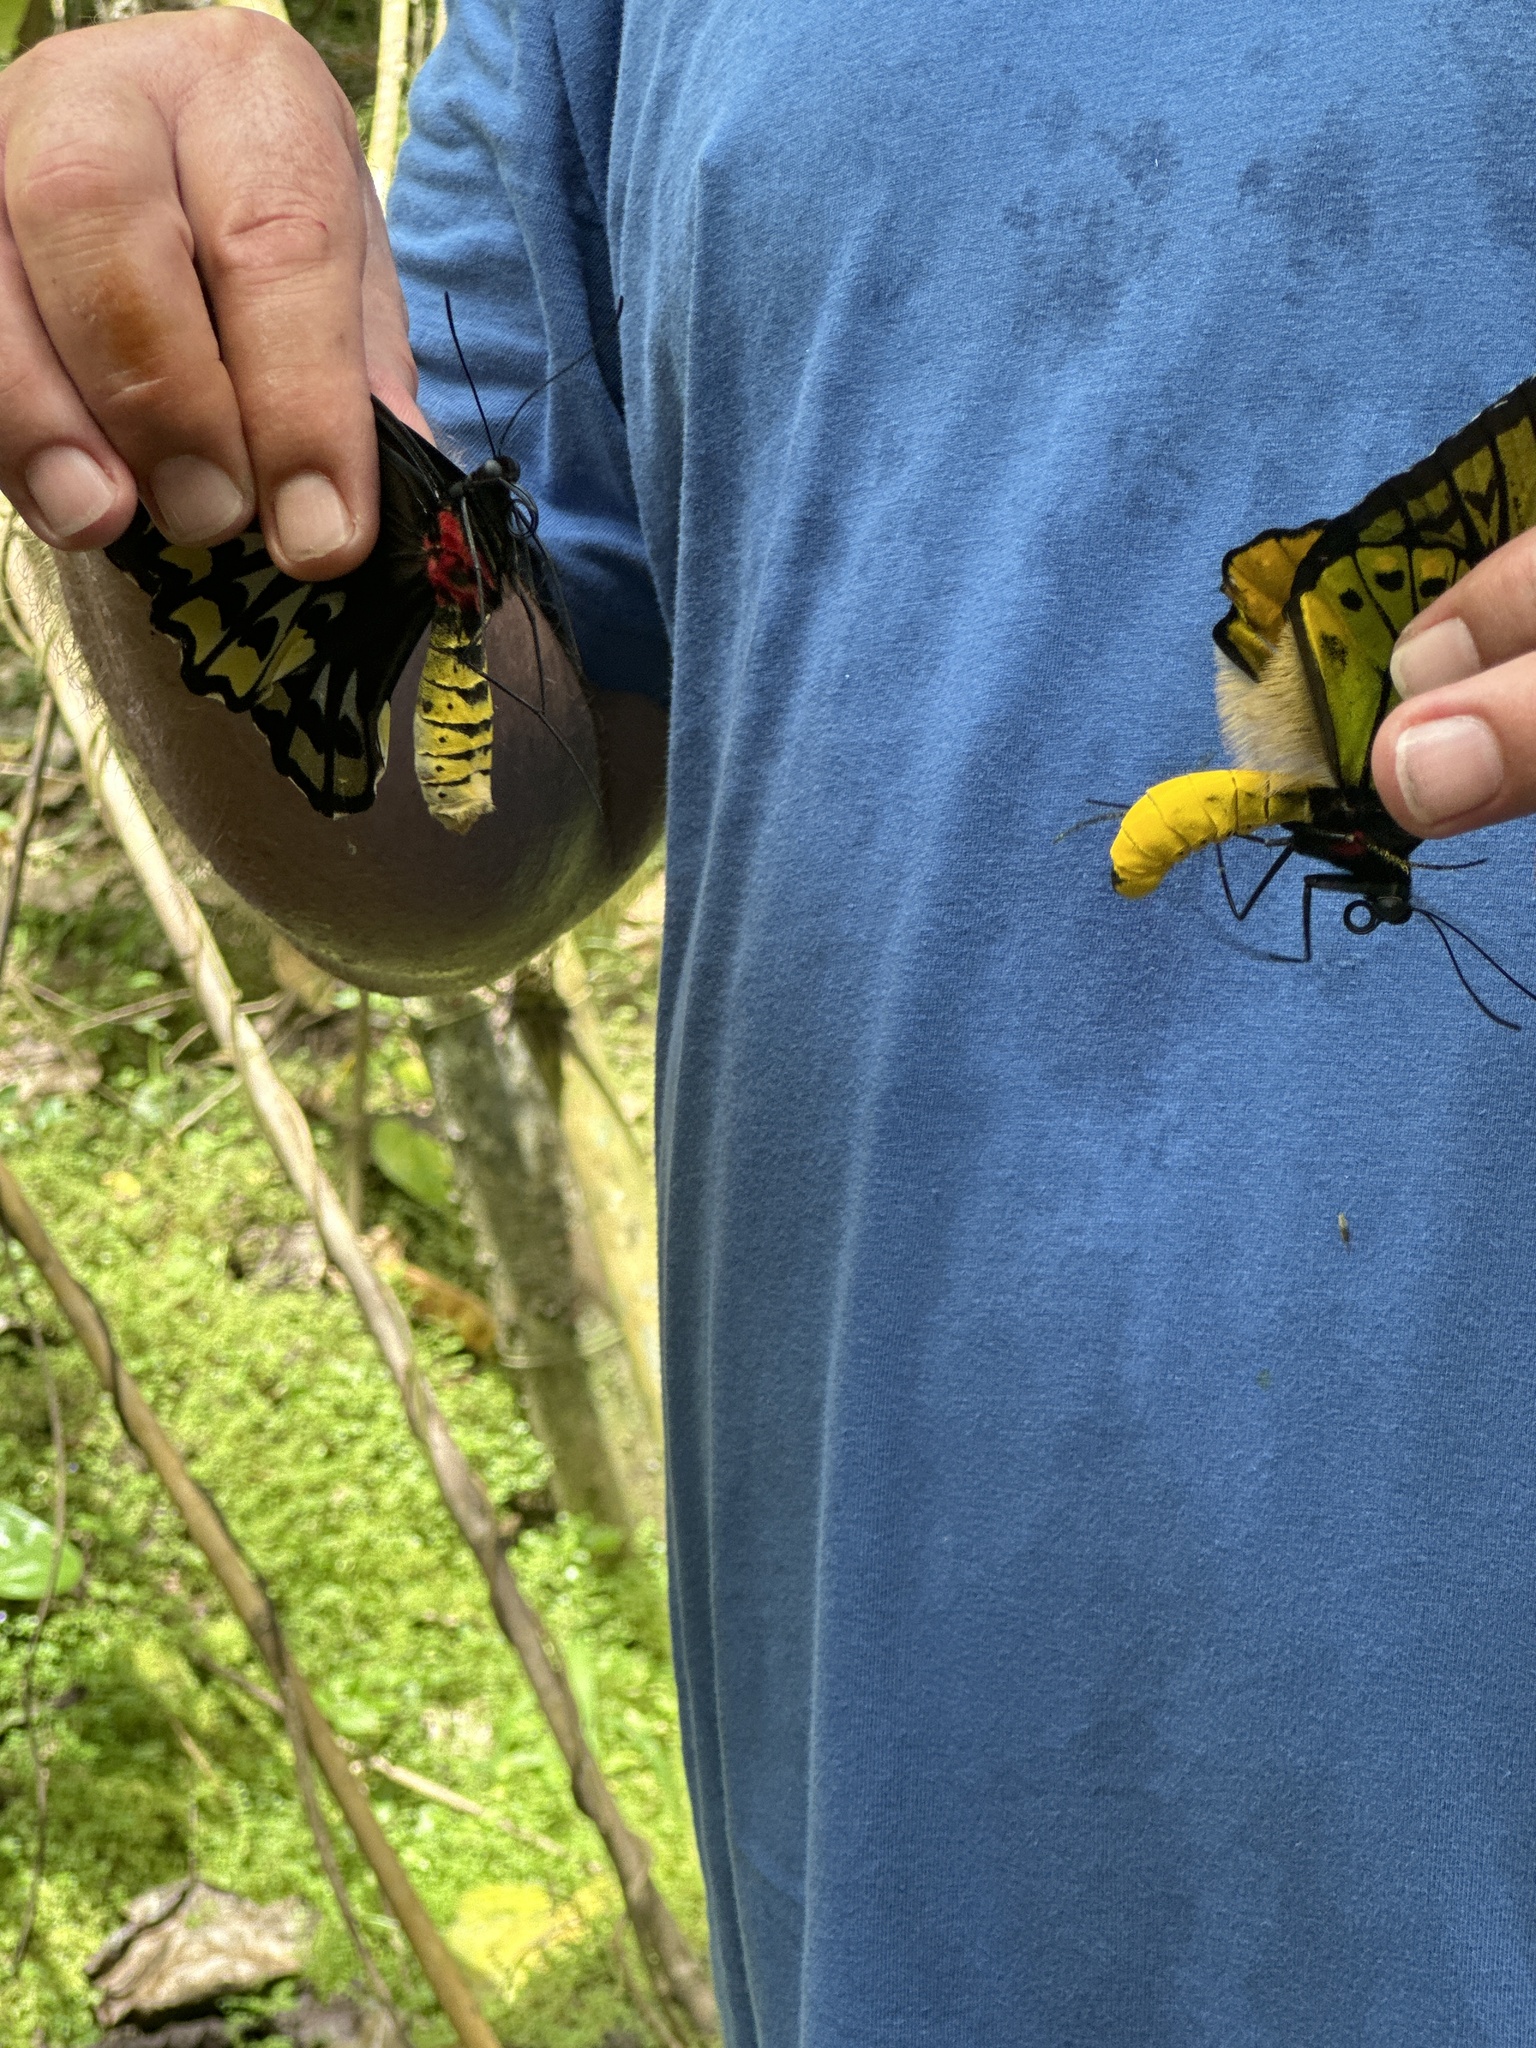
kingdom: Animalia
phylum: Arthropoda
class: Insecta
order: Lepidoptera
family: Papilionidae
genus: Ornithoptera
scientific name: Ornithoptera croesus
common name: Wallace's golden birdwing
